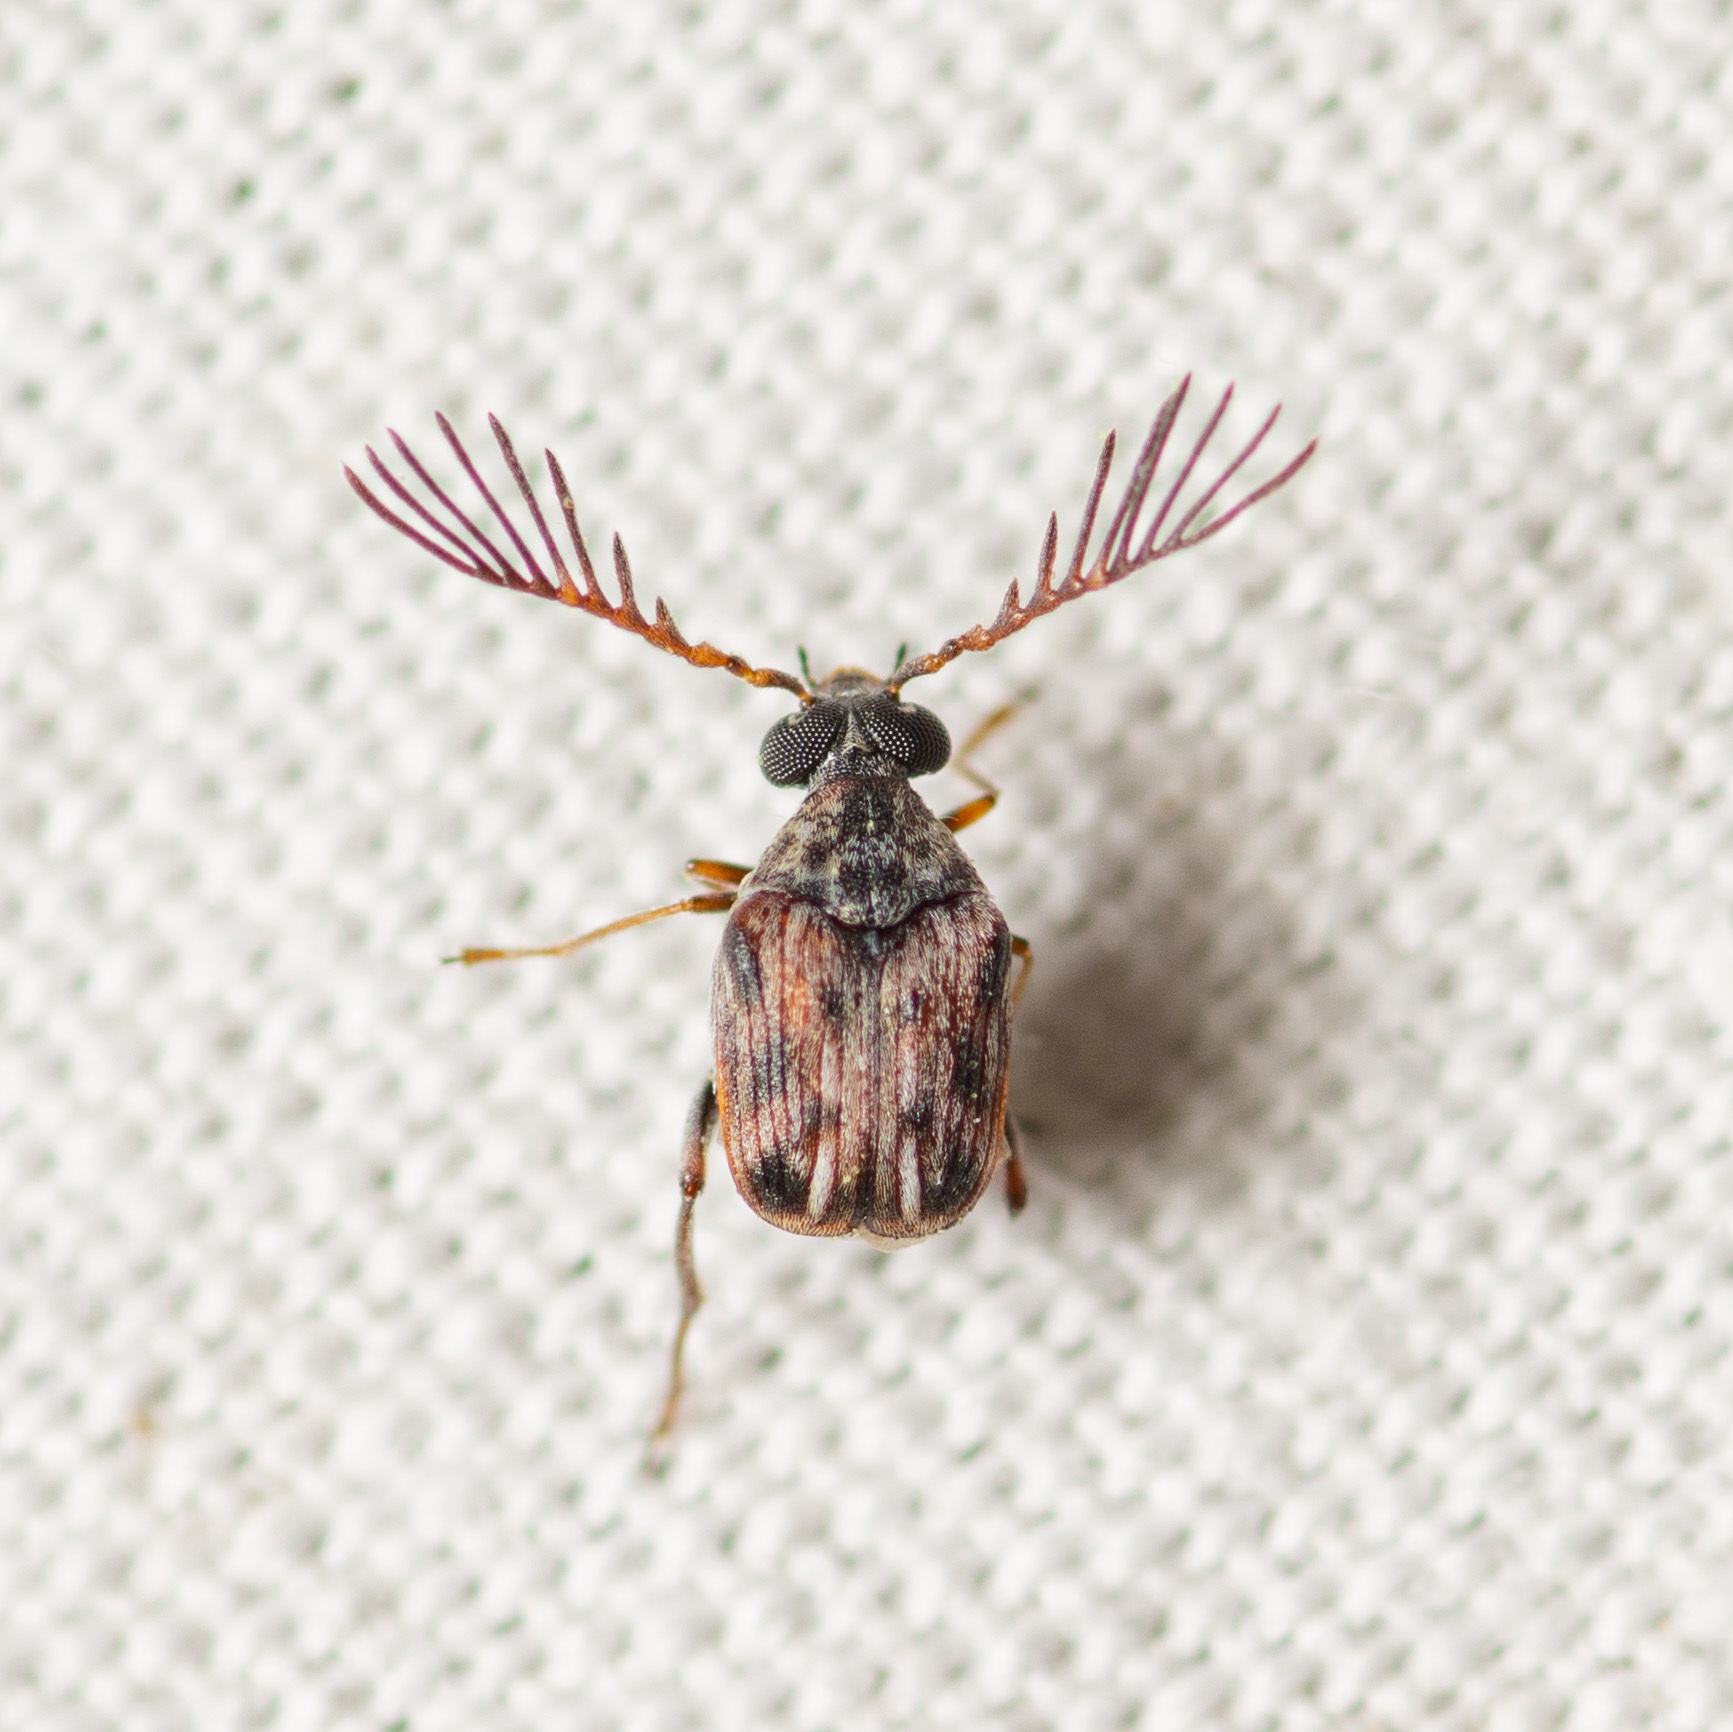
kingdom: Animalia
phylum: Arthropoda
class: Insecta
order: Coleoptera
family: Chrysomelidae
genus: Megacerus
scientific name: Megacerus cubiculus
